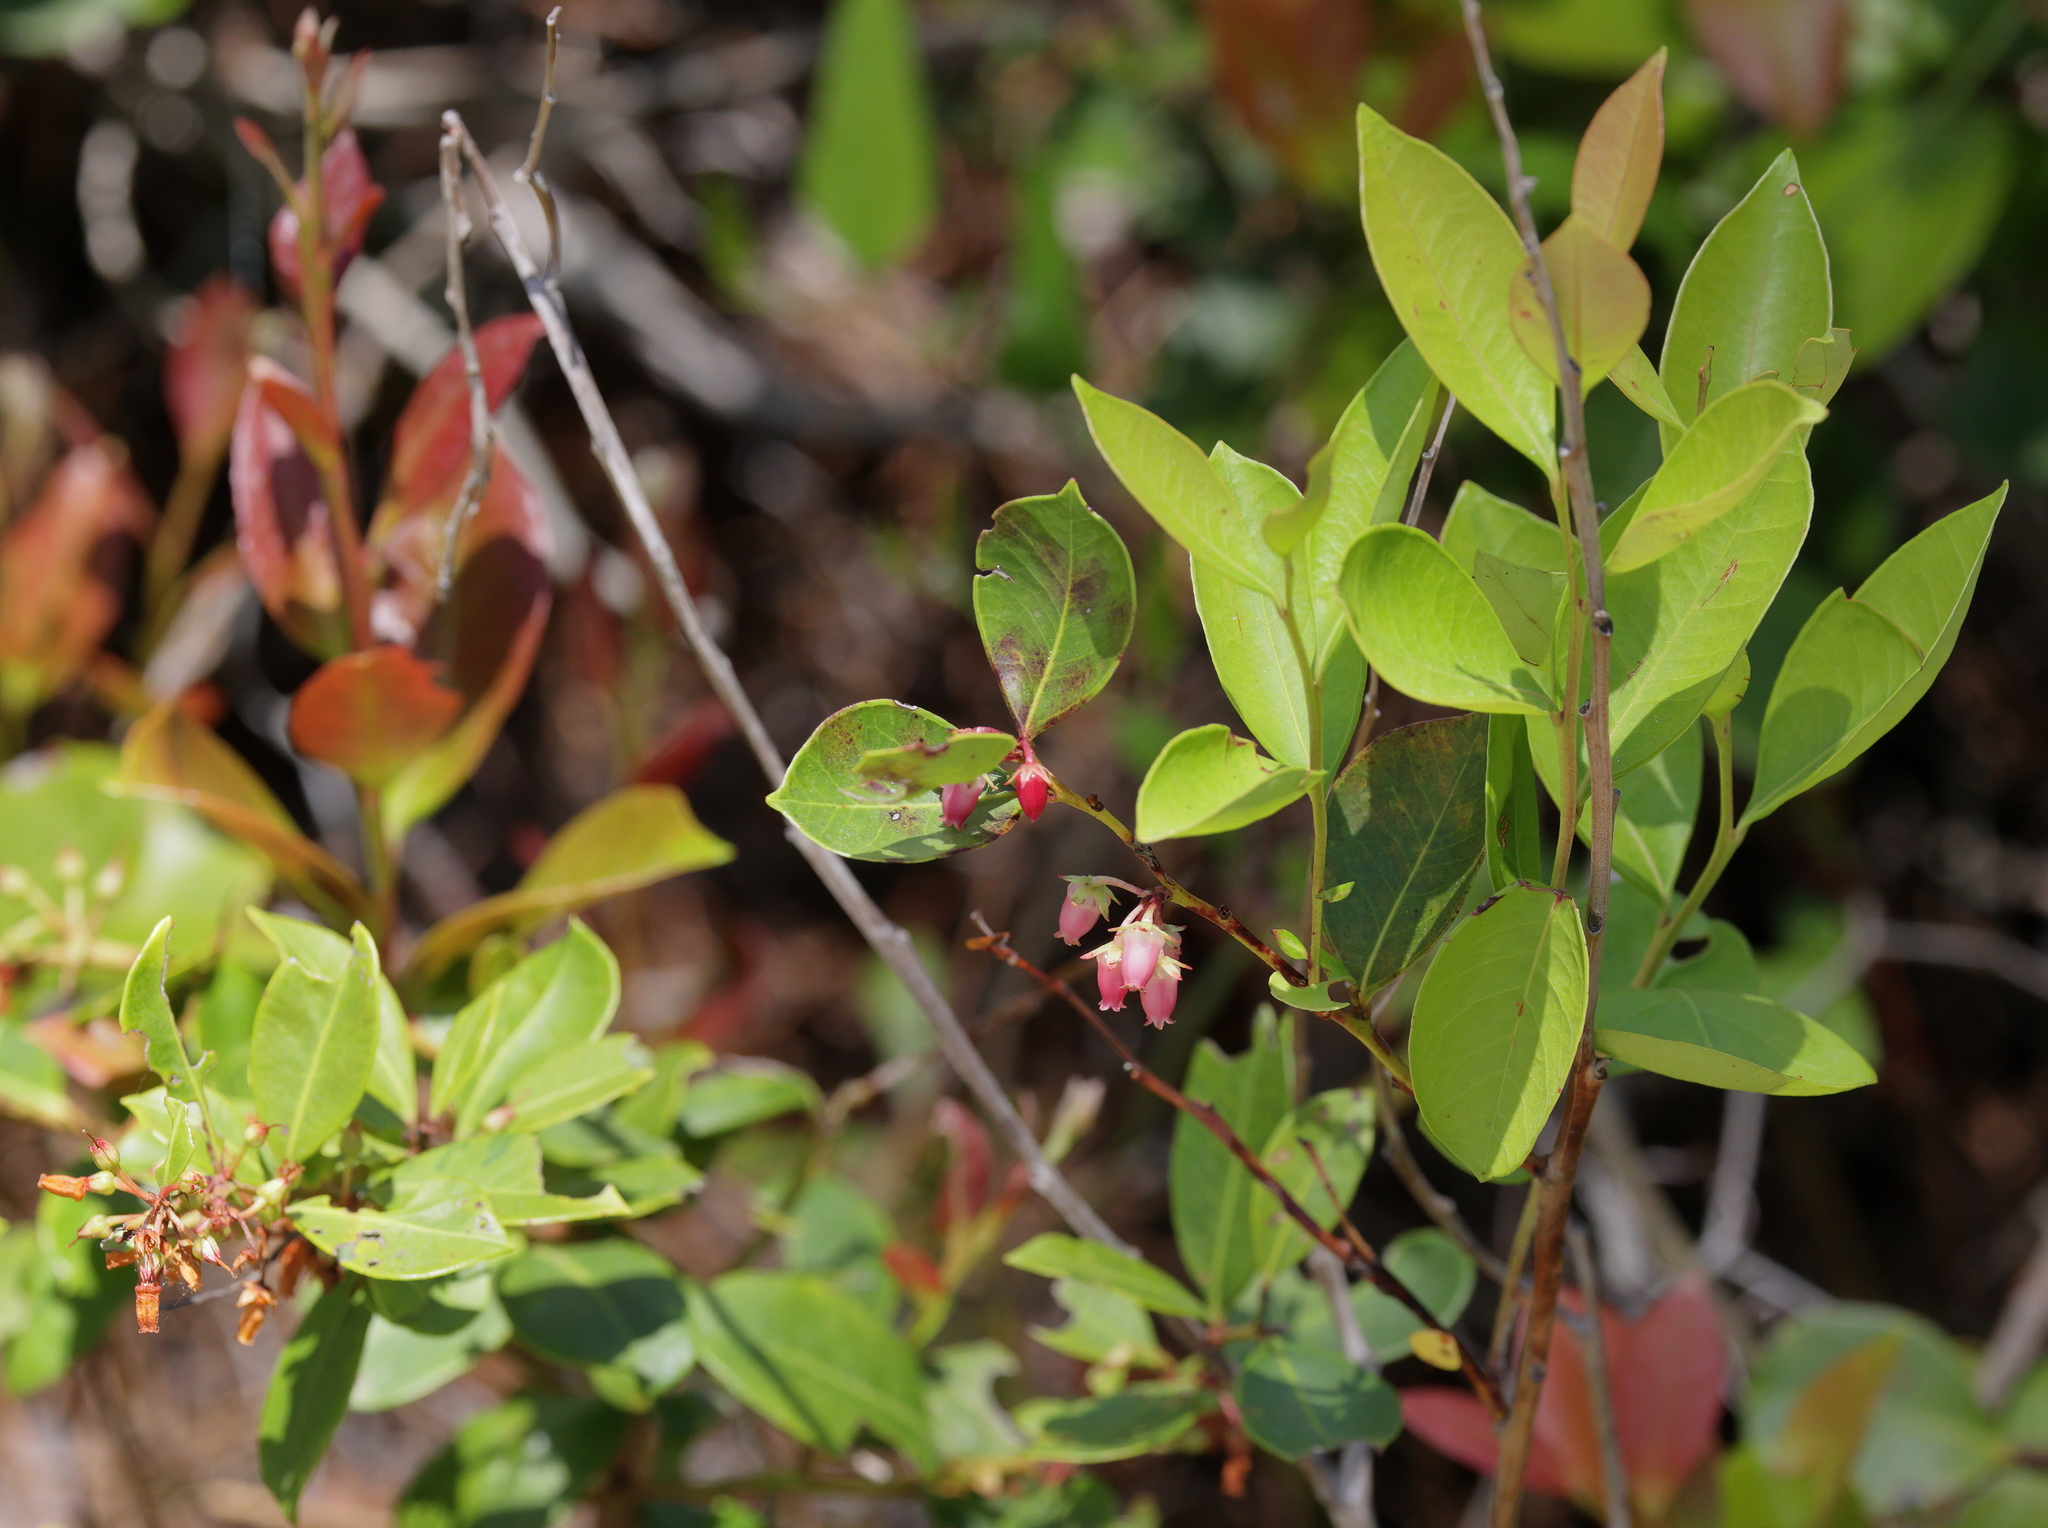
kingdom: Plantae
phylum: Tracheophyta
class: Magnoliopsida
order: Ericales
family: Ericaceae
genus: Lyonia
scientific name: Lyonia lucida
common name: Fetterbush
